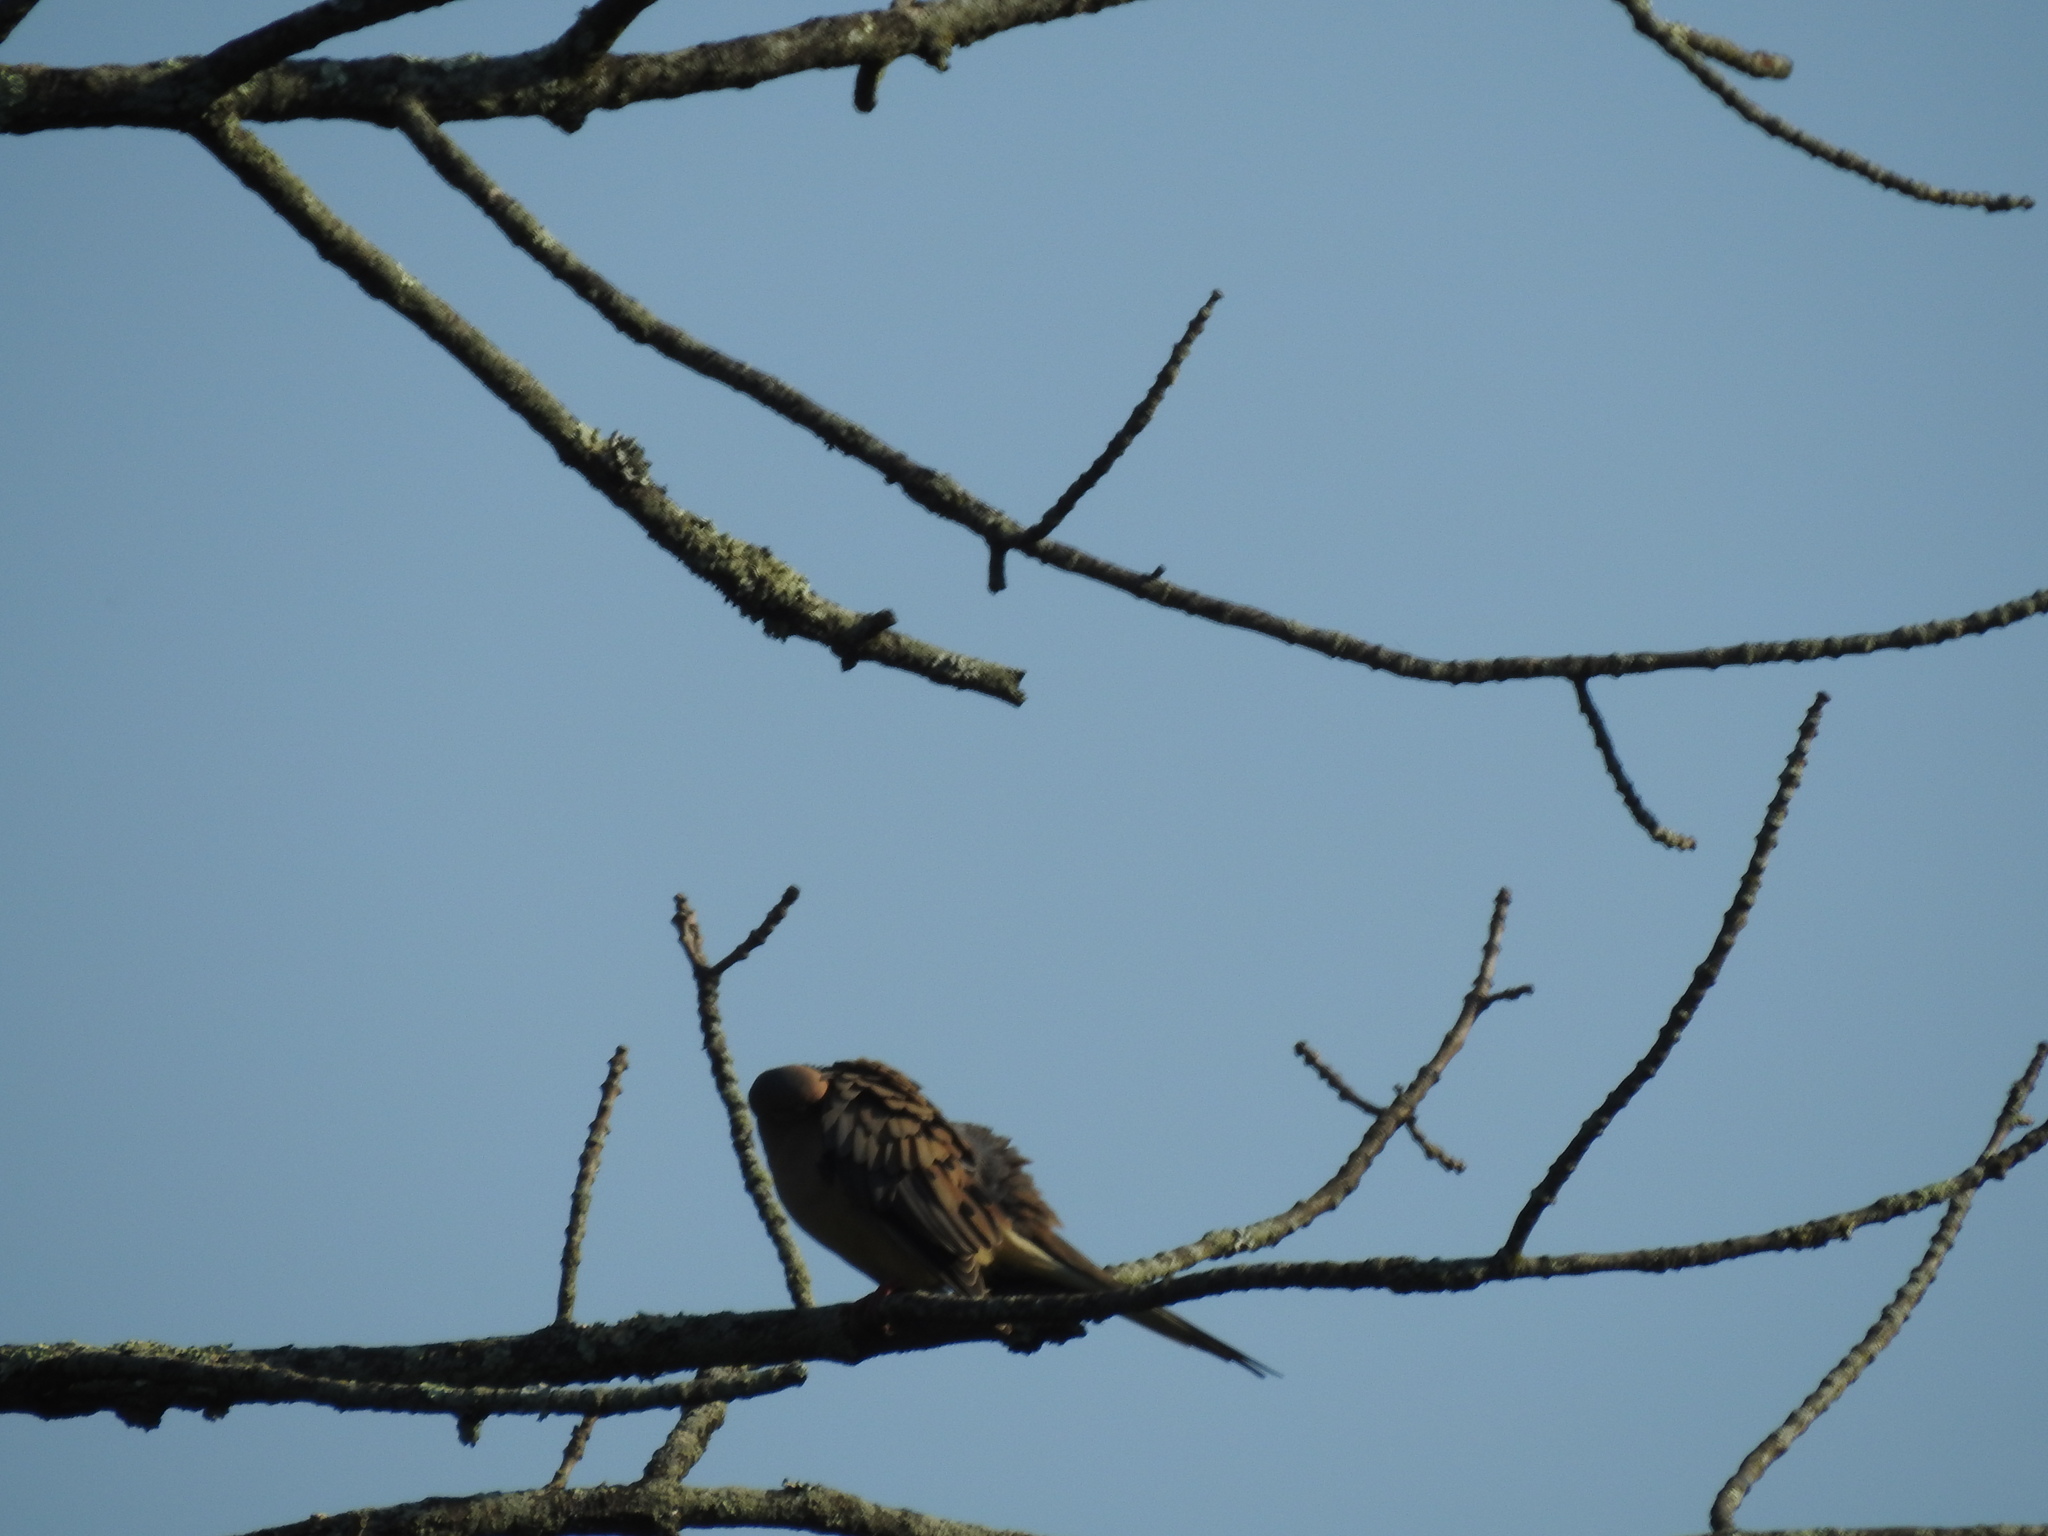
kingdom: Animalia
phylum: Chordata
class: Aves
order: Columbiformes
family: Columbidae
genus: Zenaida
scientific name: Zenaida macroura
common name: Mourning dove
